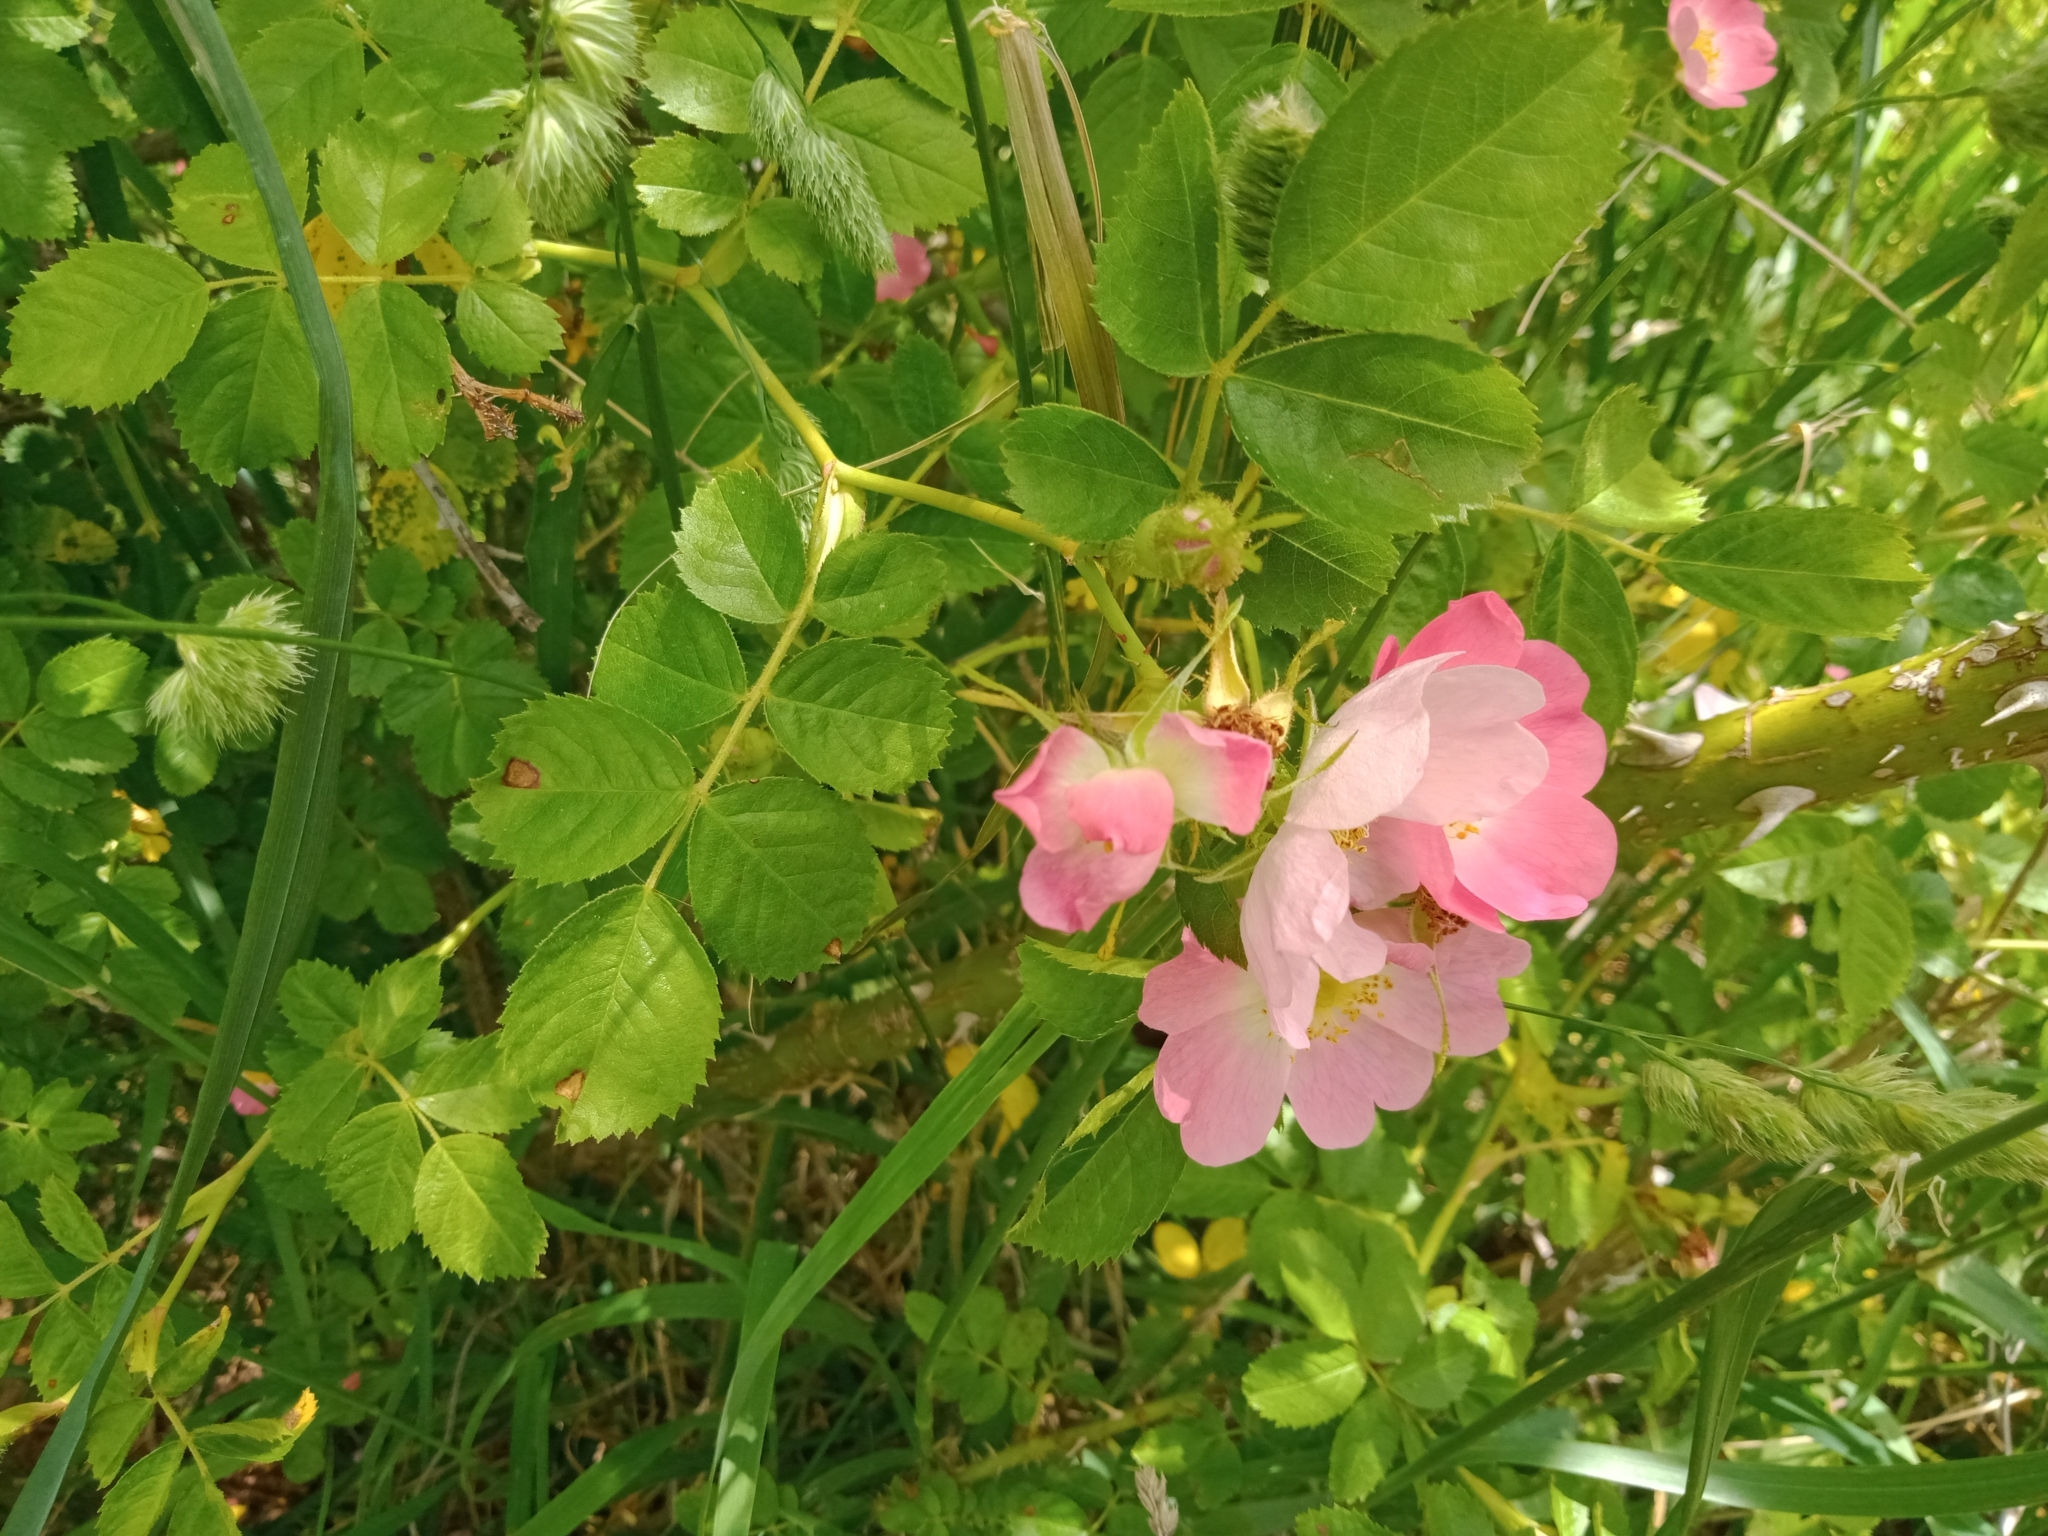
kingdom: Plantae
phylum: Tracheophyta
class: Magnoliopsida
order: Rosales
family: Rosaceae
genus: Rosa
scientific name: Rosa rubiginosa
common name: Sweet-briar
